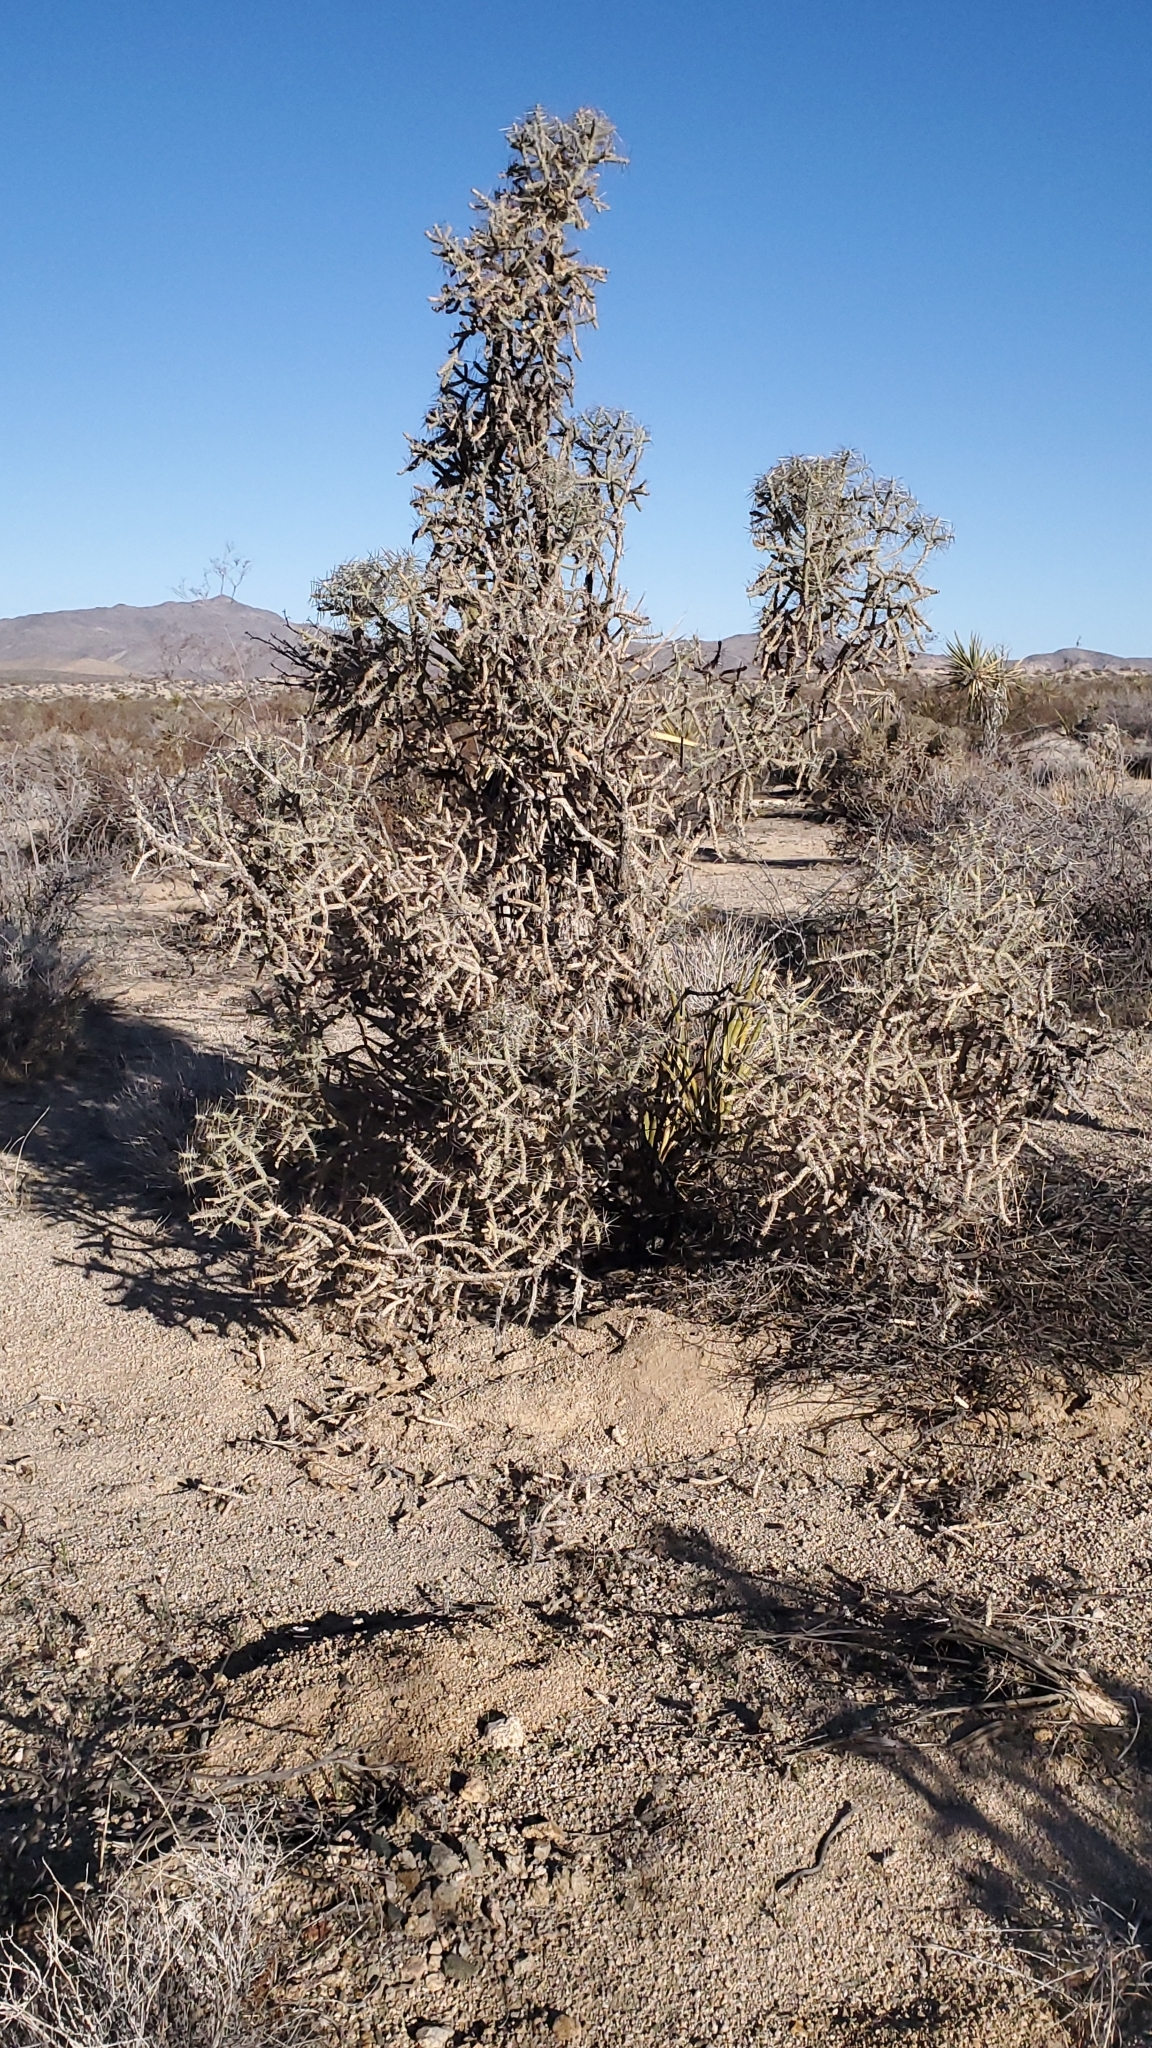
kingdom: Plantae
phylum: Tracheophyta
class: Magnoliopsida
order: Caryophyllales
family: Cactaceae
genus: Cylindropuntia
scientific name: Cylindropuntia ramosissima
